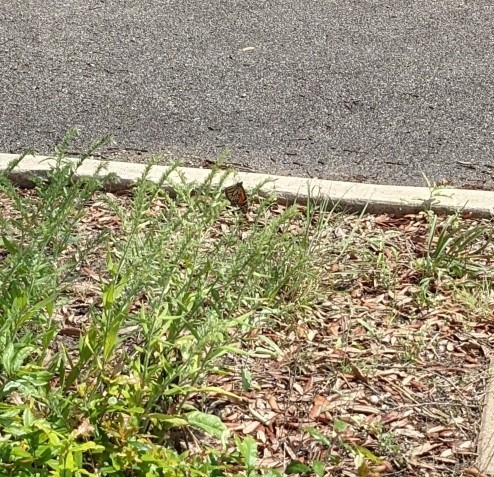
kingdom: Animalia
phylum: Arthropoda
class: Insecta
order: Lepidoptera
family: Nymphalidae
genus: Danaus
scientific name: Danaus plexippus
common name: Monarch
